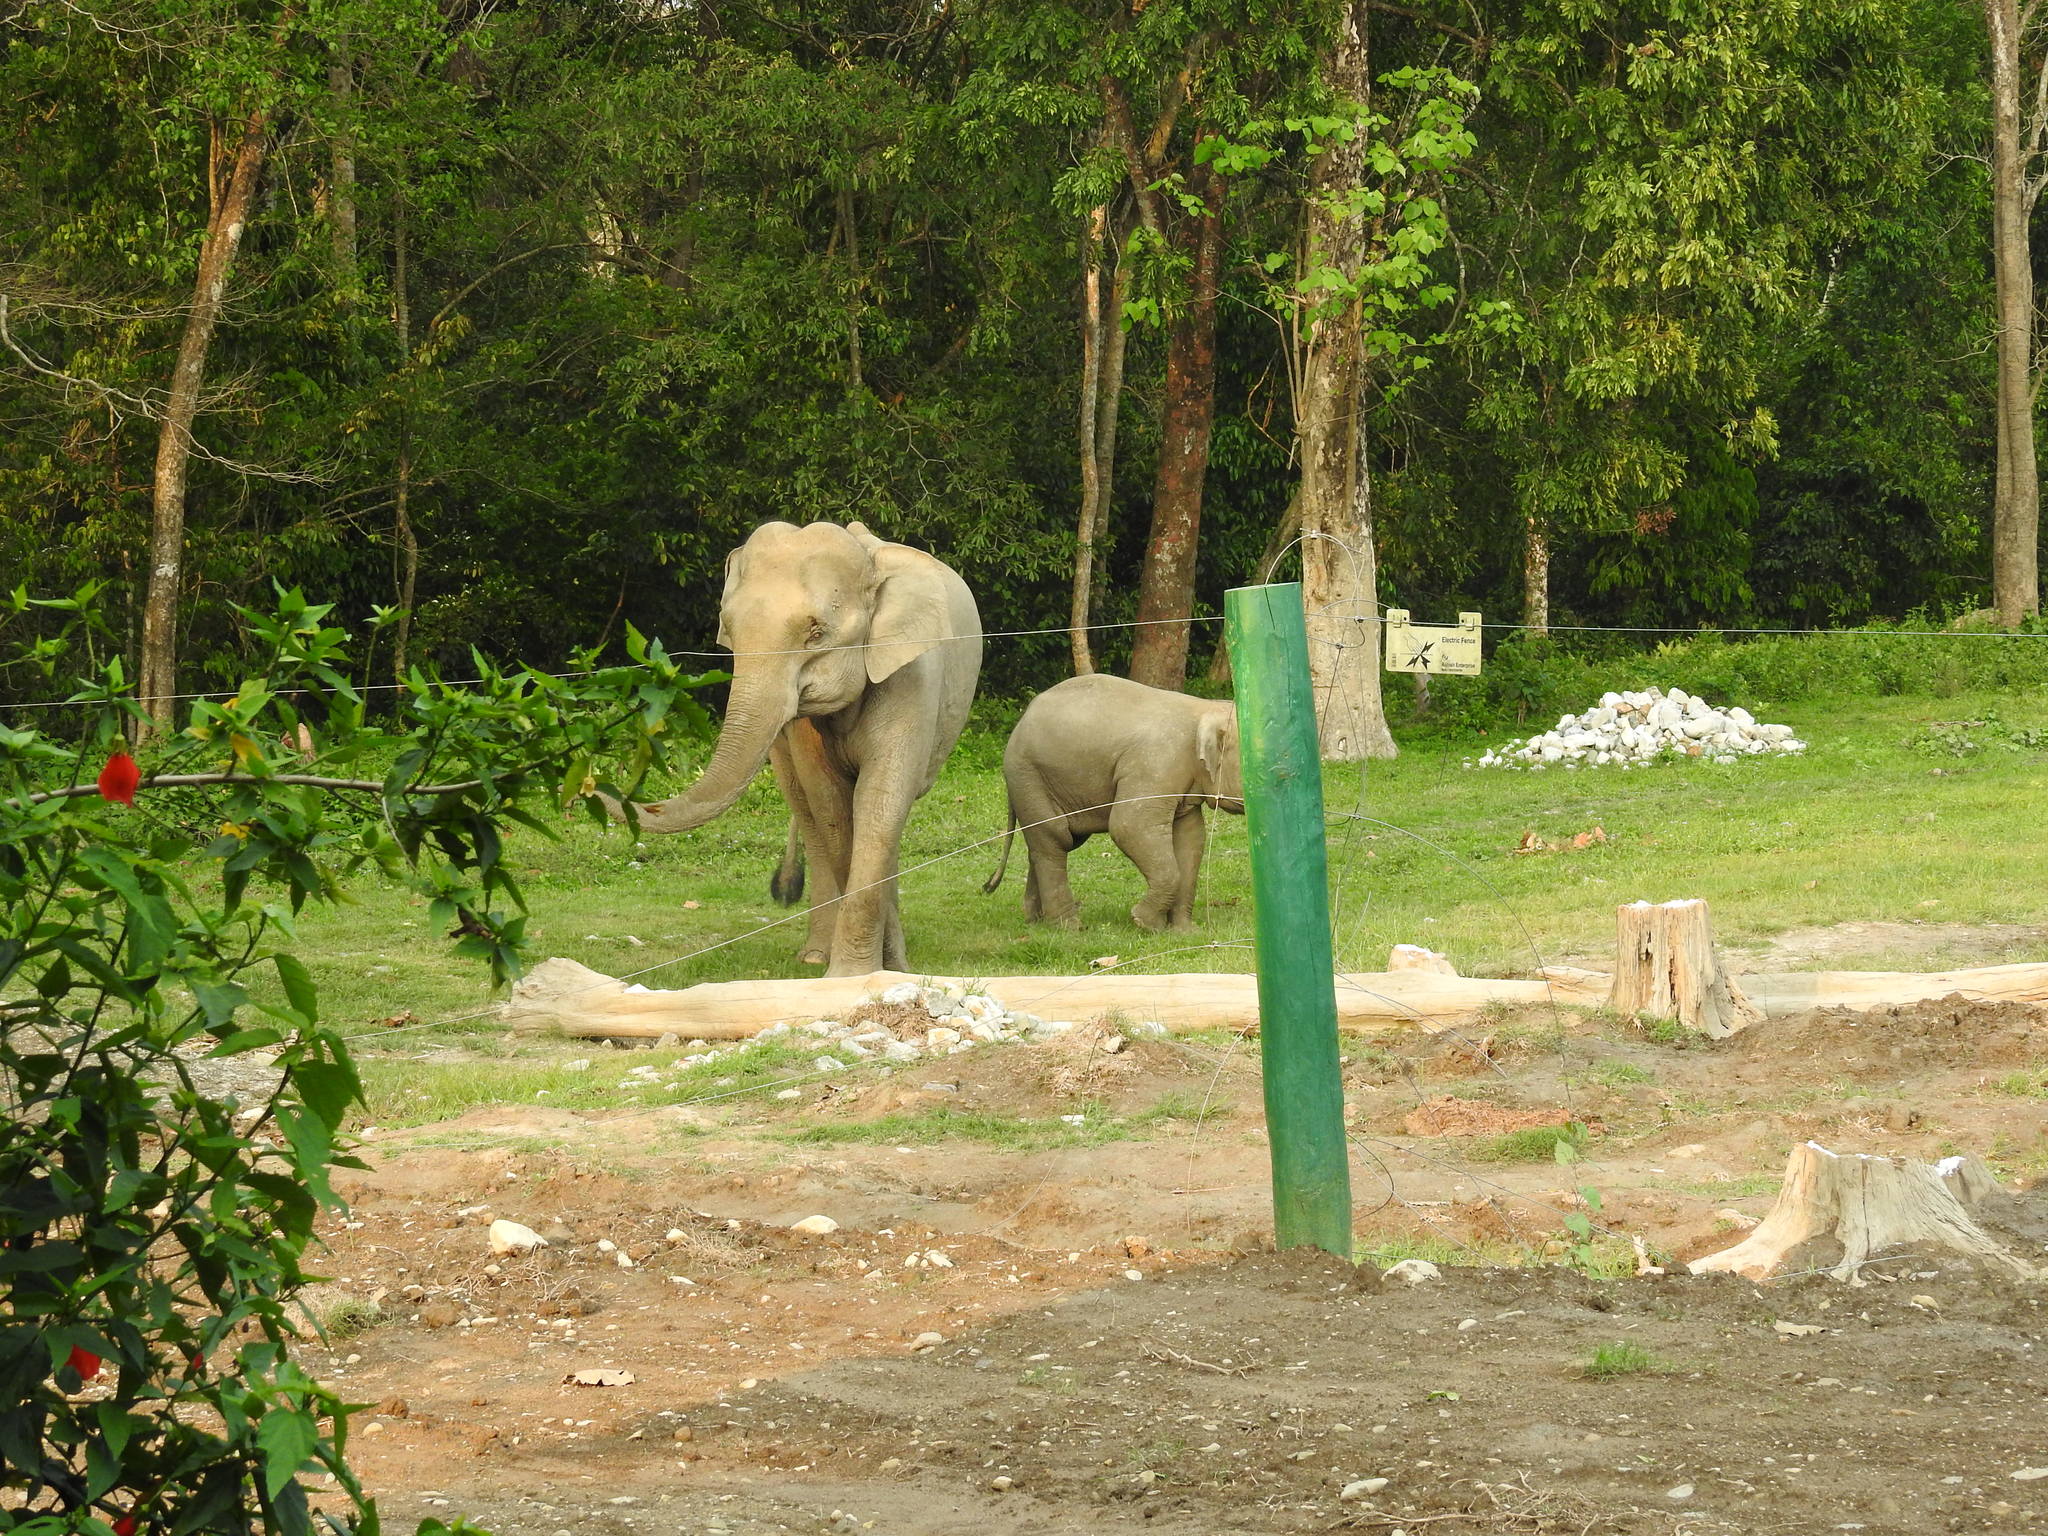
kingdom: Animalia
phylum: Chordata
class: Mammalia
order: Proboscidea
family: Elephantidae
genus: Elephas
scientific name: Elephas maximus
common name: Asian elephant
